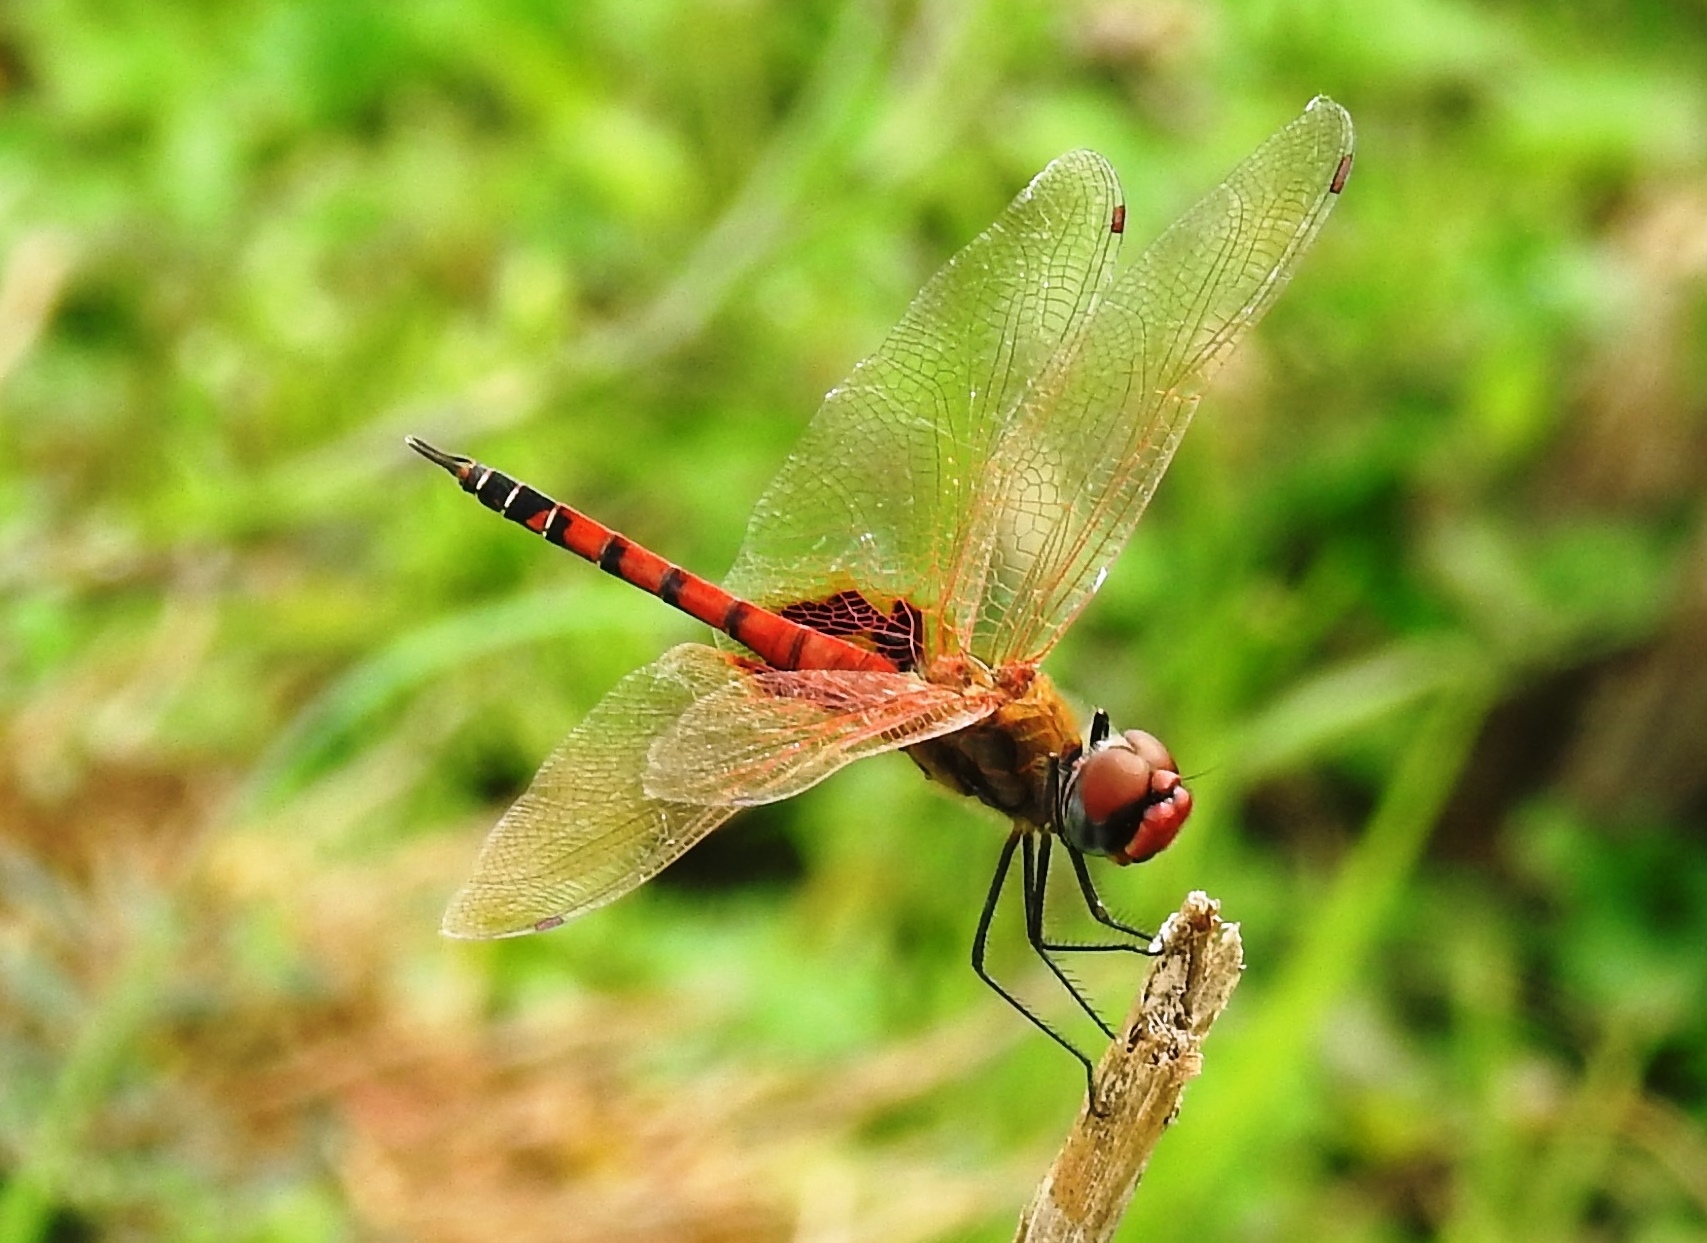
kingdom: Animalia
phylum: Arthropoda
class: Insecta
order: Odonata
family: Libellulidae
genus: Tramea
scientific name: Tramea basilaris
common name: Keyhole glider
